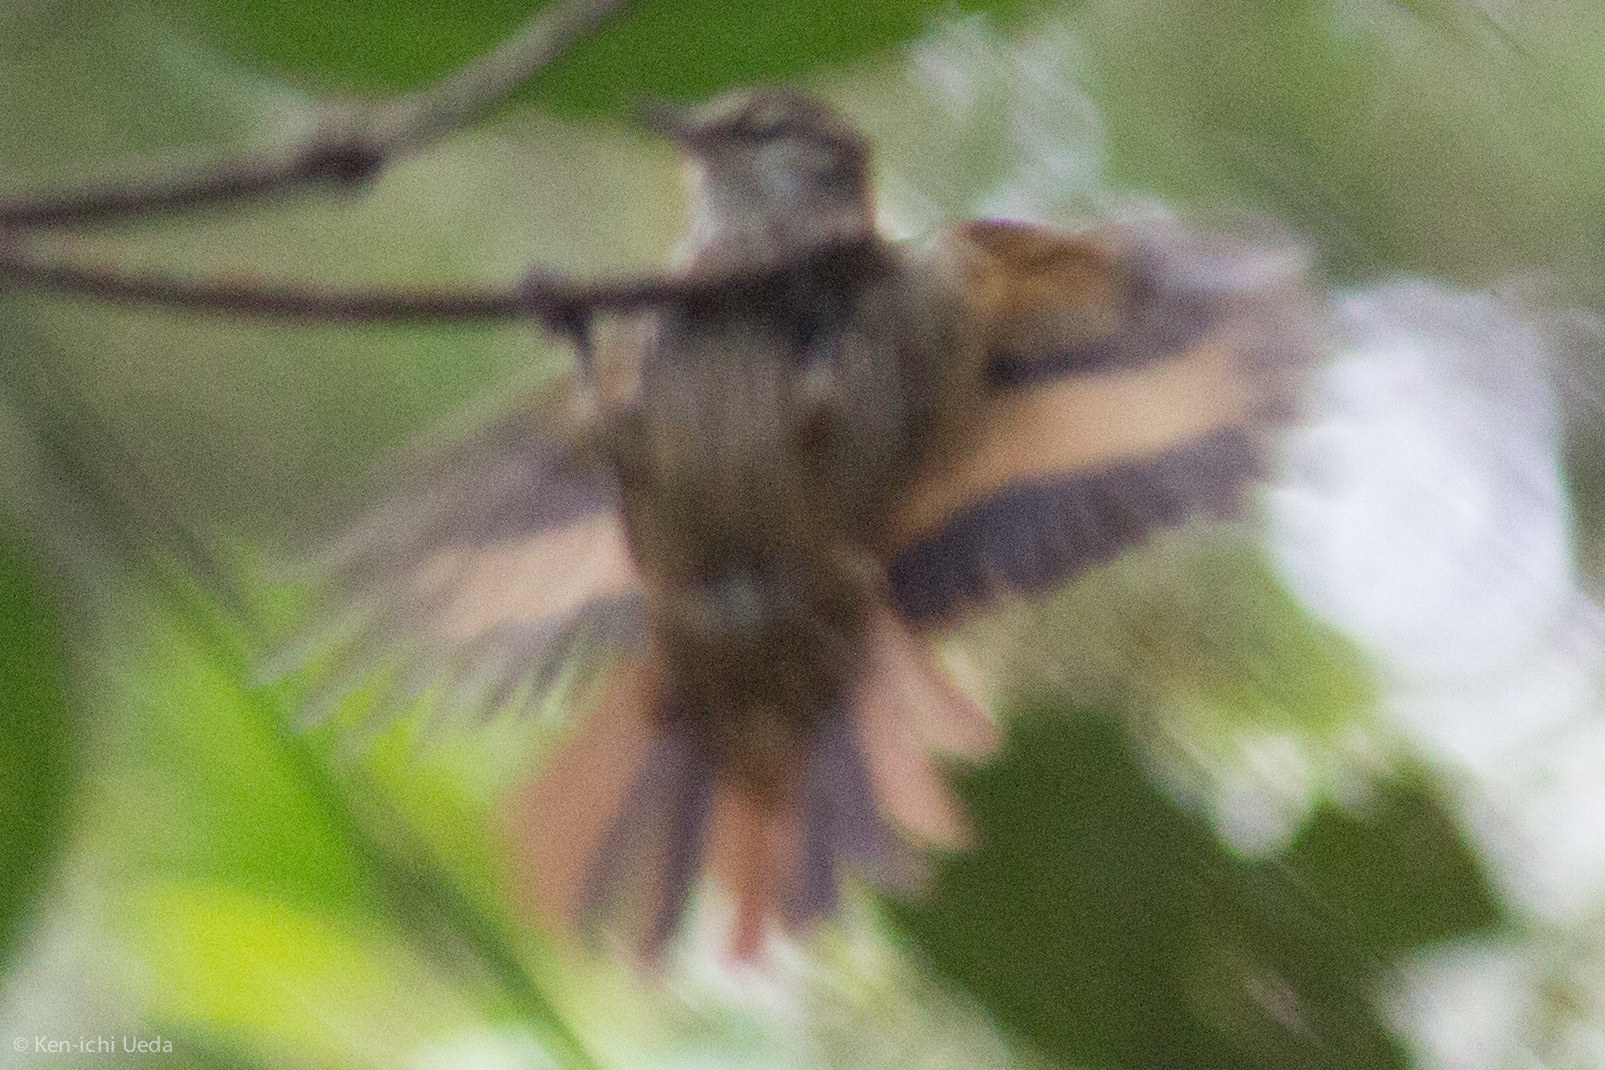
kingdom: Animalia
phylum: Chordata
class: Aves
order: Passeriformes
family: Furnariidae
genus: Xenops
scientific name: Xenops rutilans
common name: Streaked xenops
